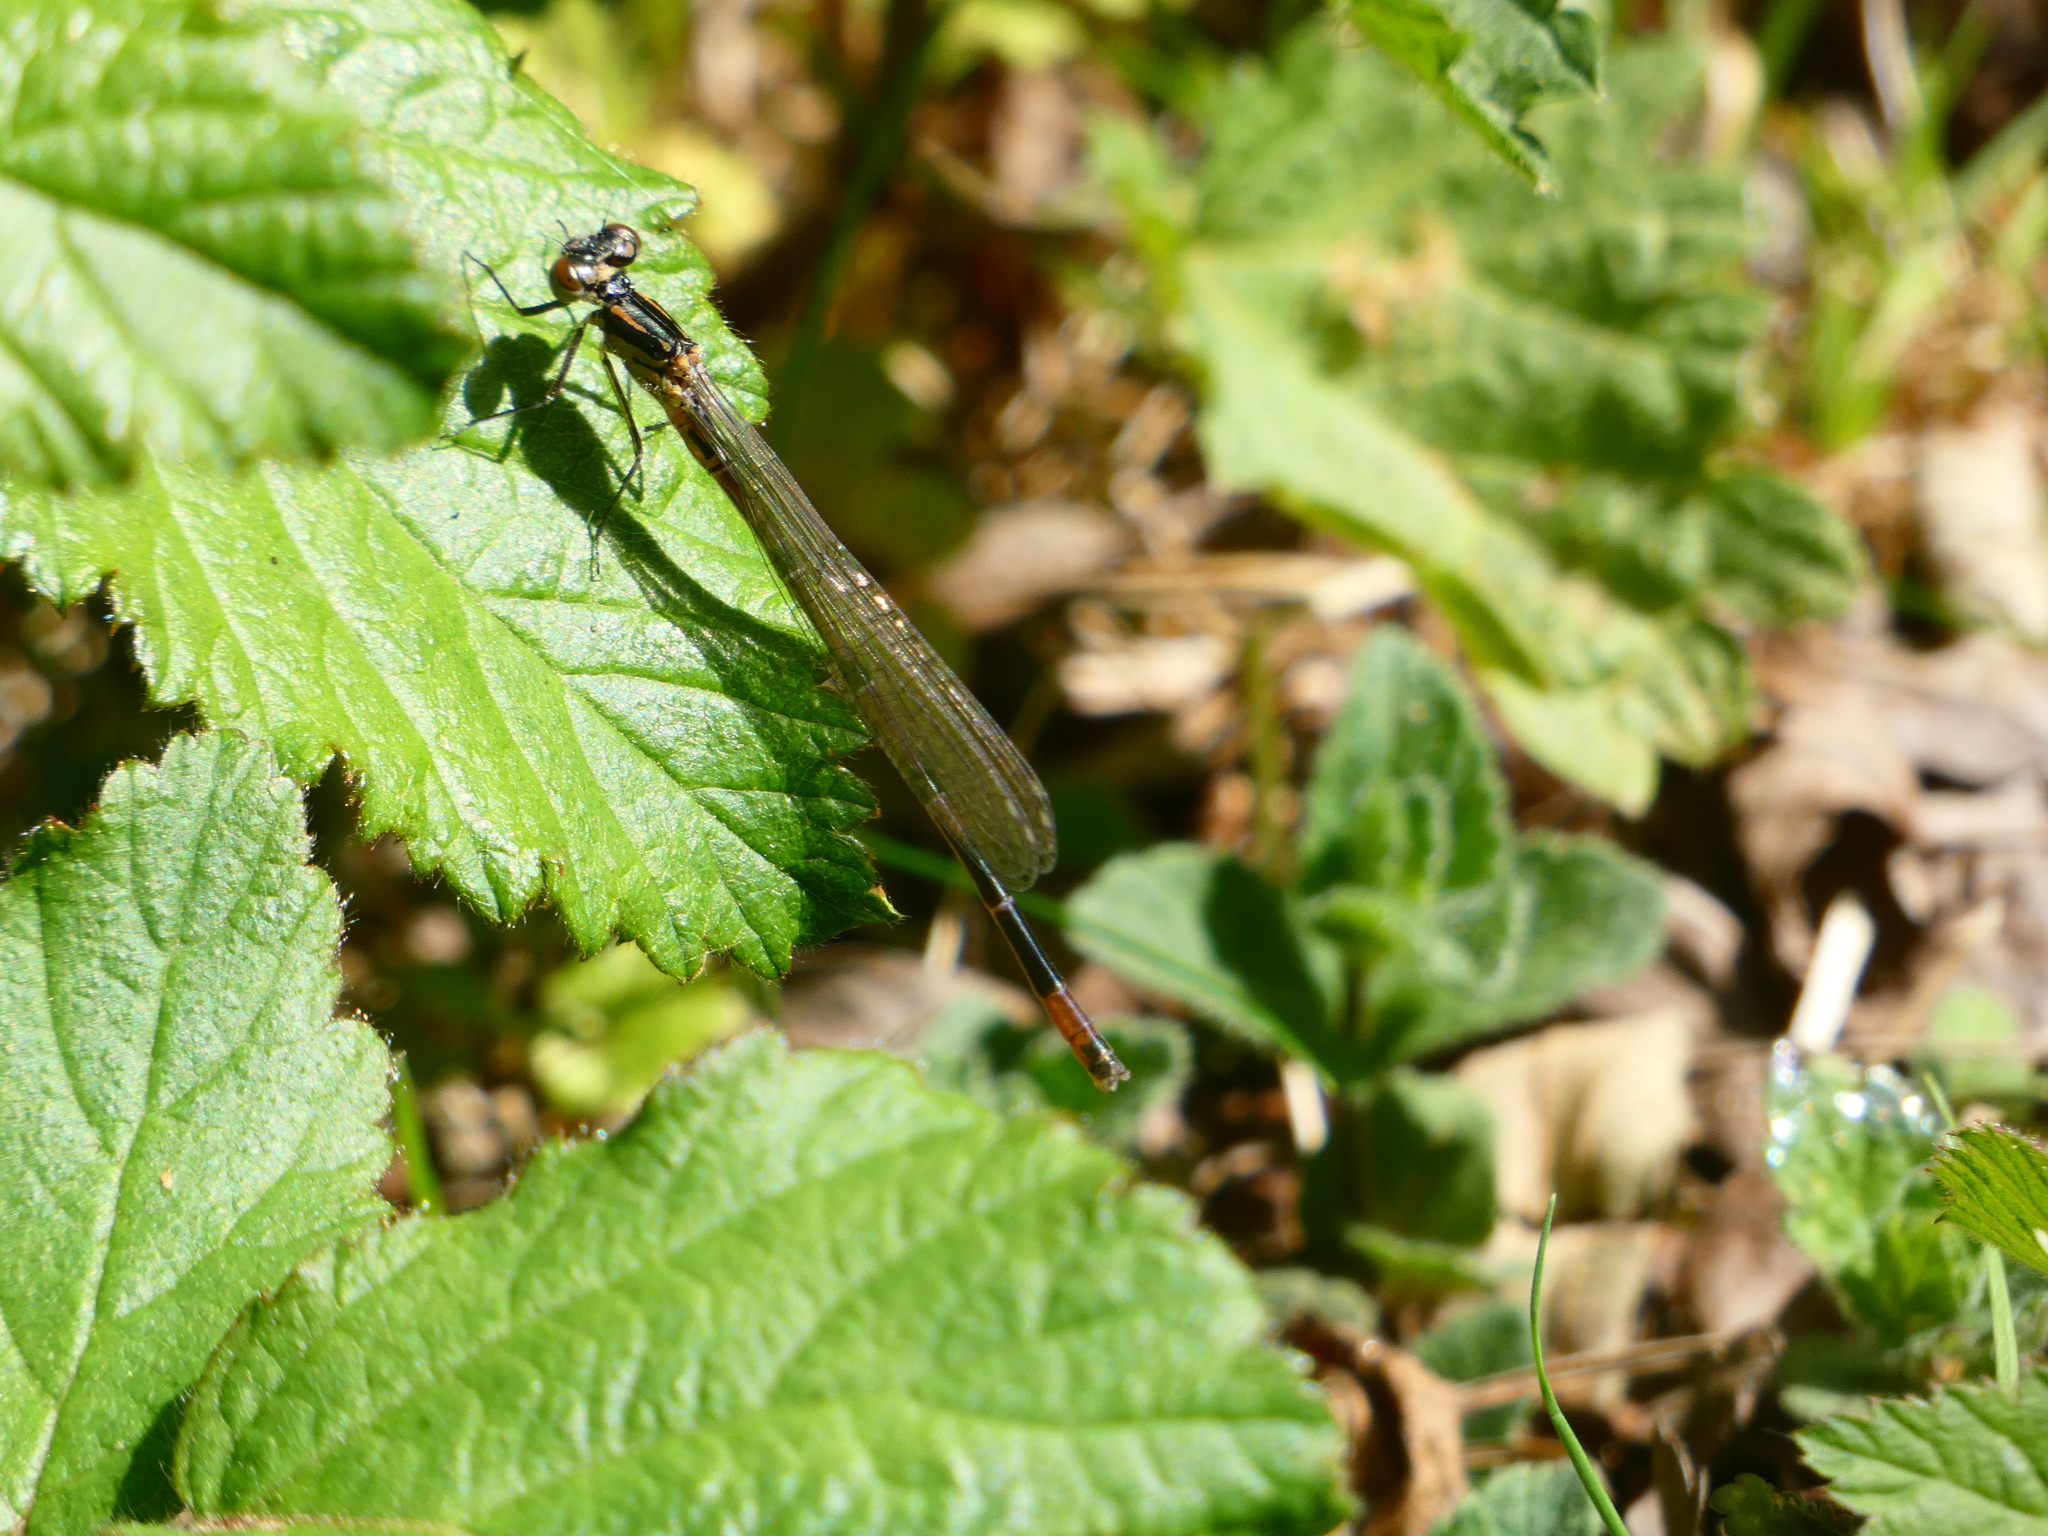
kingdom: Animalia
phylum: Arthropoda
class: Insecta
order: Odonata
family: Coenagrionidae
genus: Coenagrion
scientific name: Coenagrion pulchellum
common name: Variable bluet
